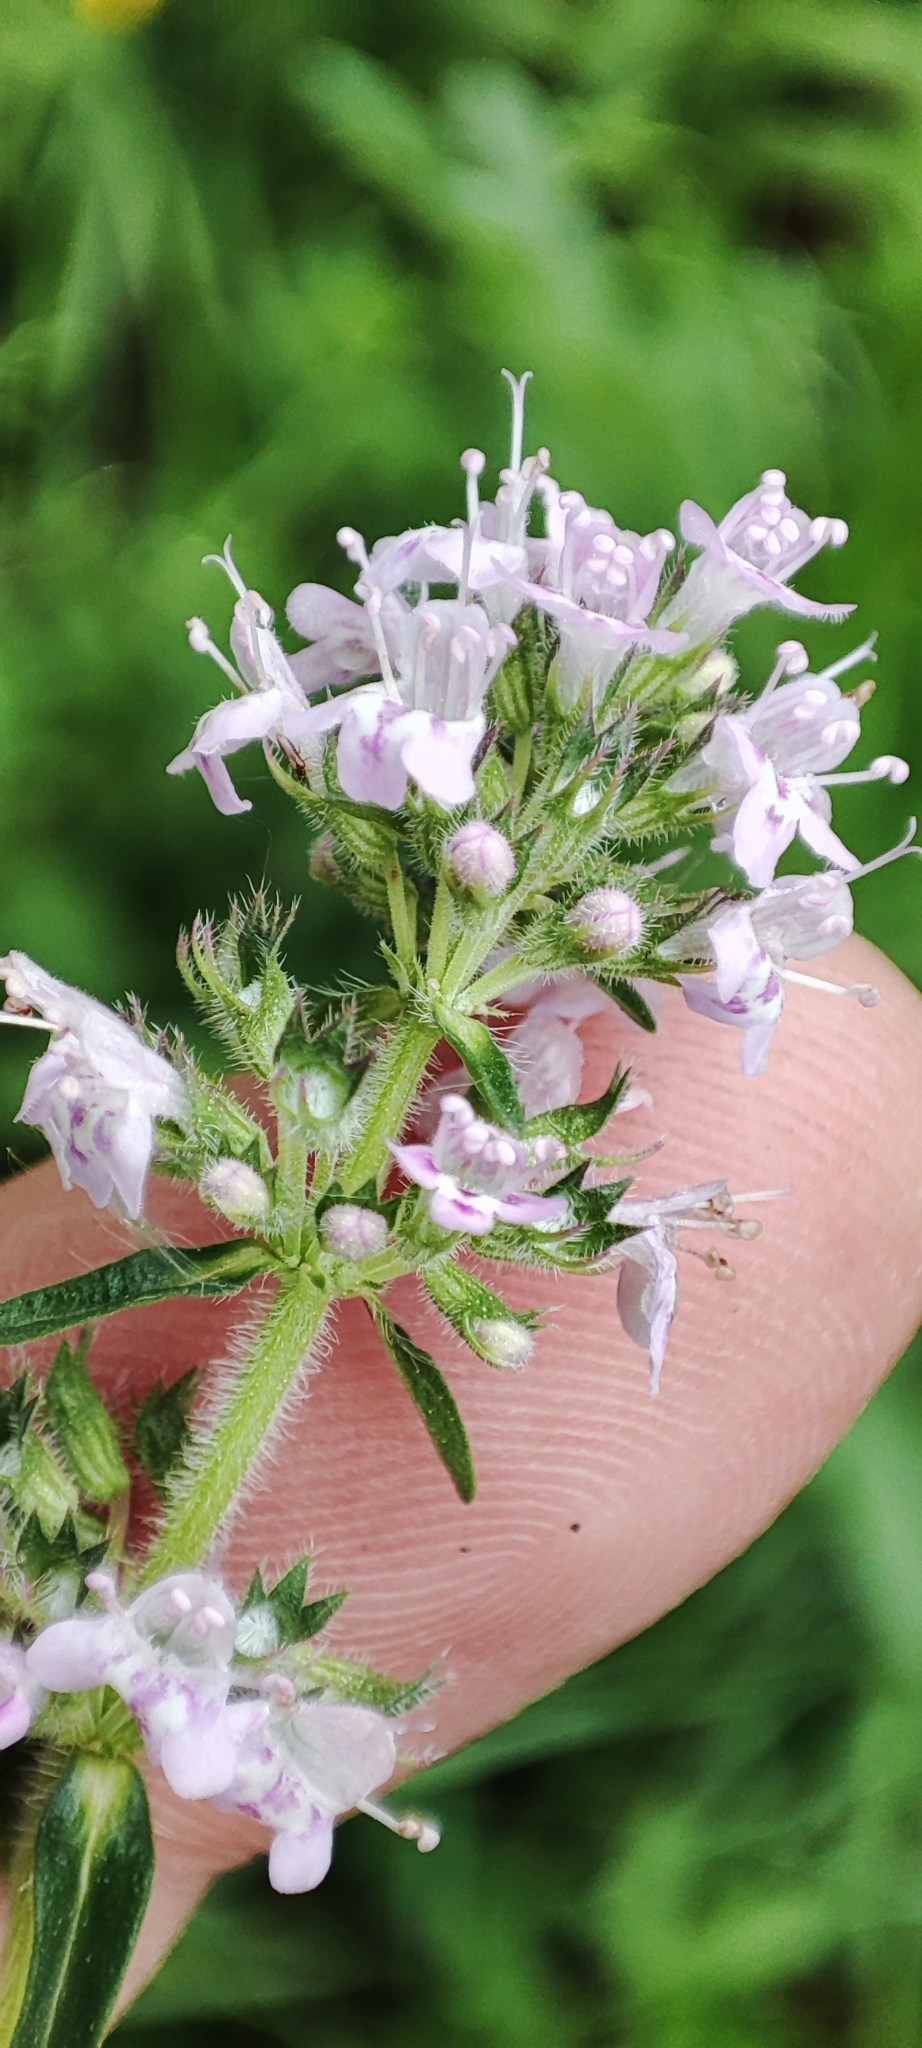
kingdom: Plantae
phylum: Tracheophyta
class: Magnoliopsida
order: Lamiales
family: Lamiaceae
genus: Thymus
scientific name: Thymus pannonicus
